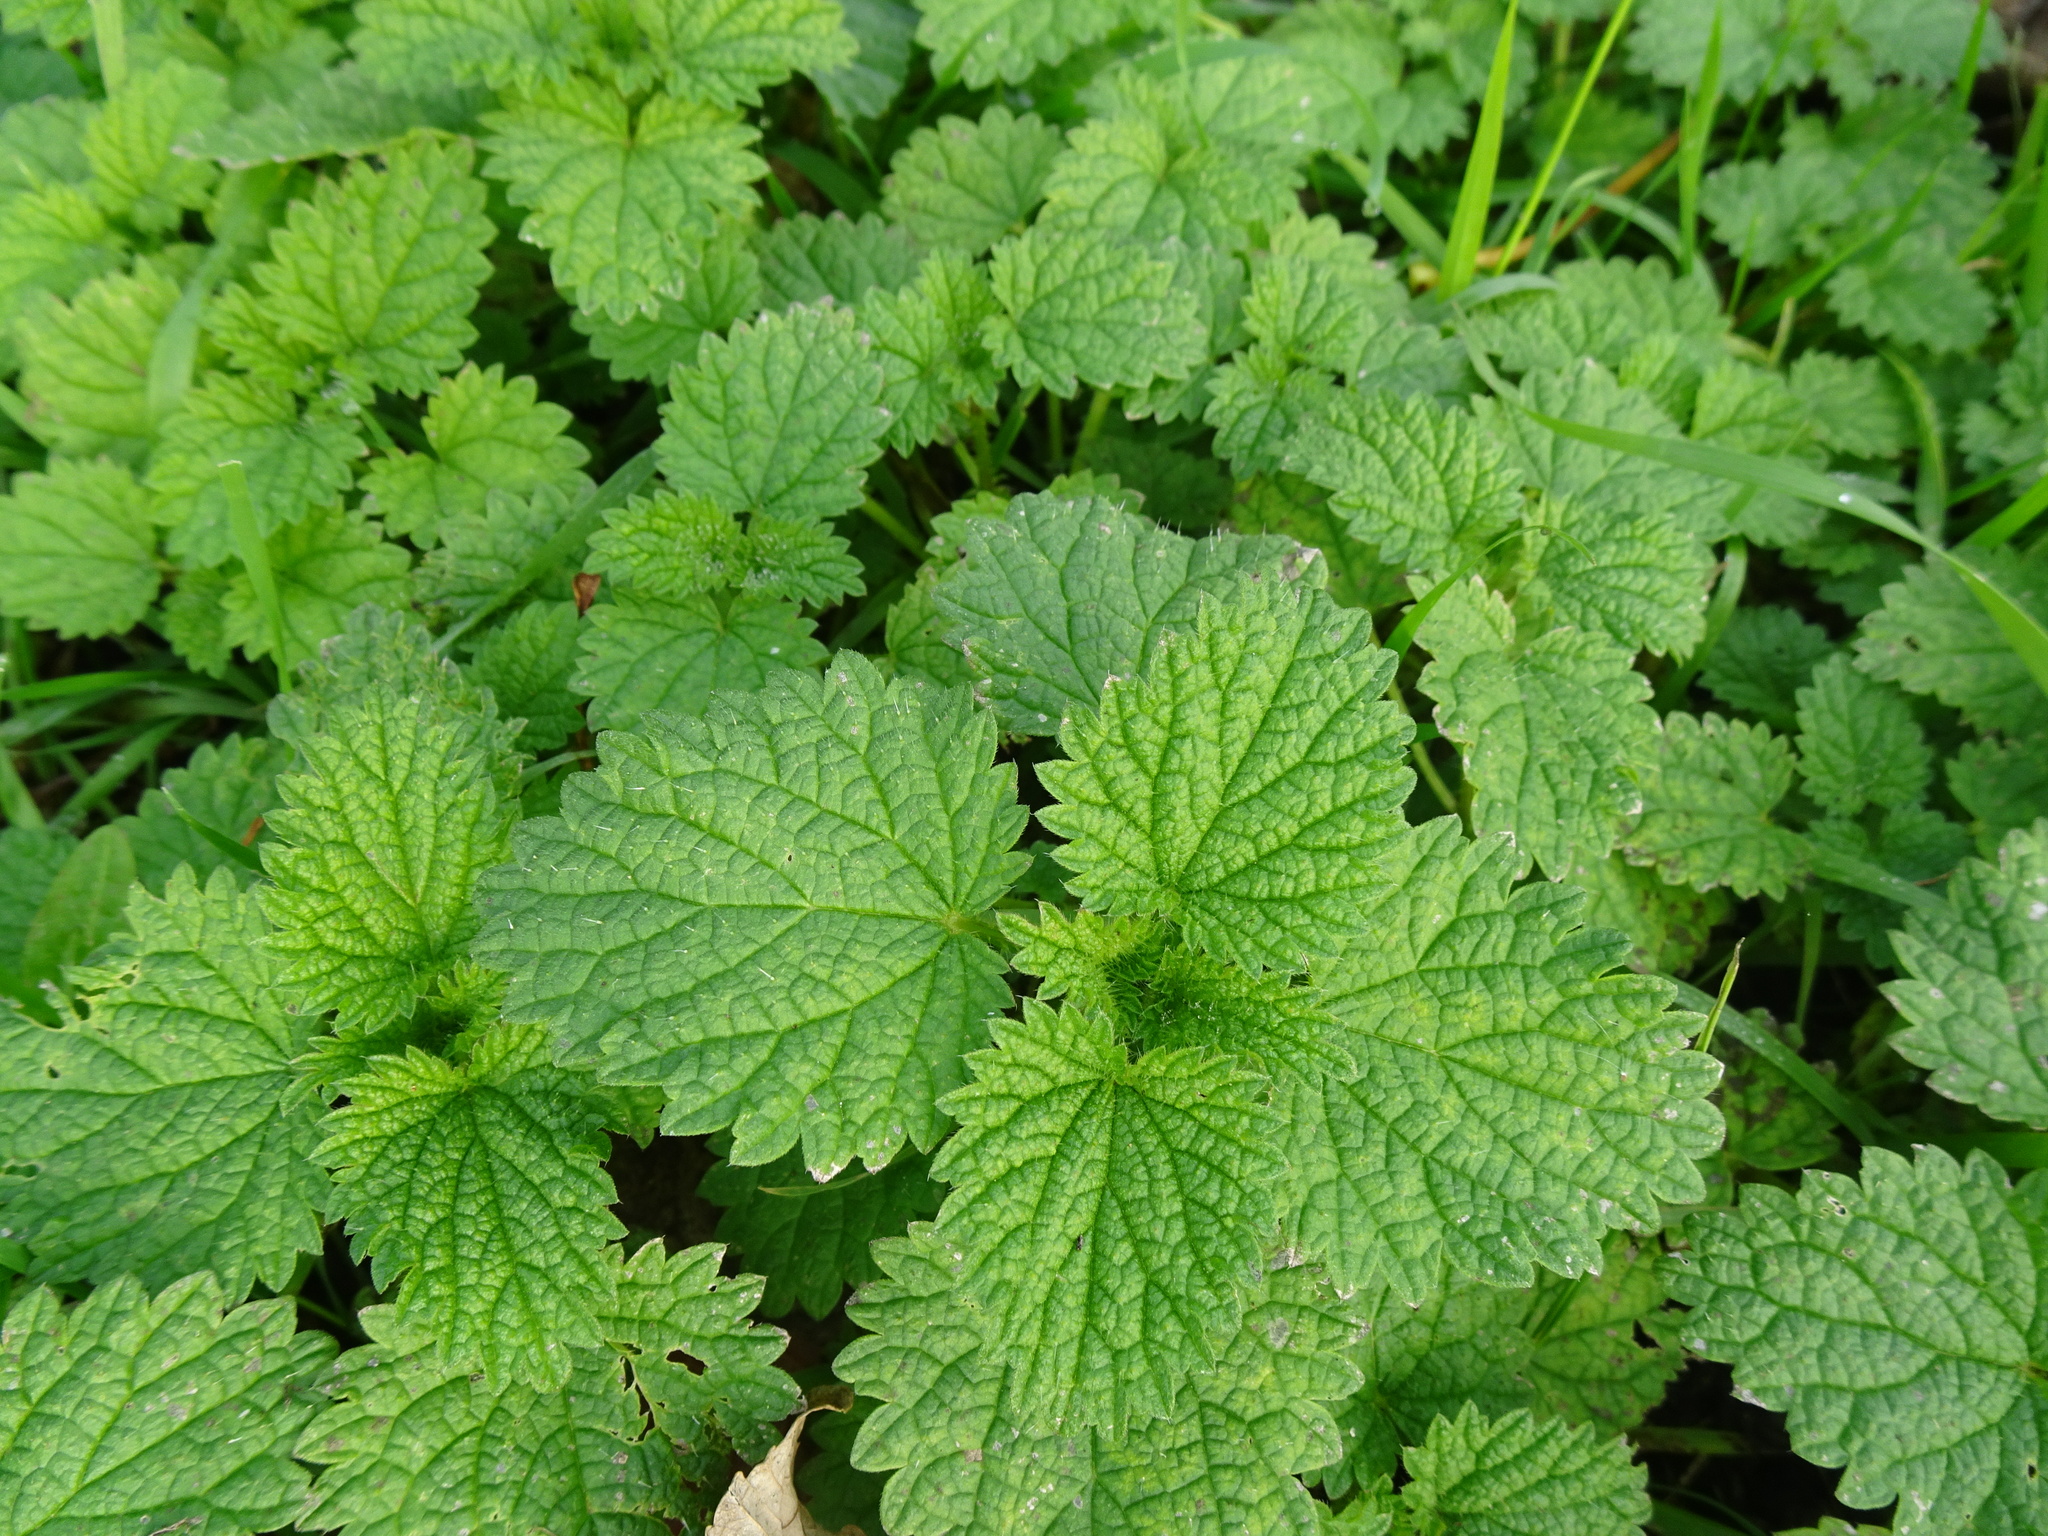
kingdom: Plantae
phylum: Tracheophyta
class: Magnoliopsida
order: Rosales
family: Urticaceae
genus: Urtica
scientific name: Urtica dioica
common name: Common nettle
